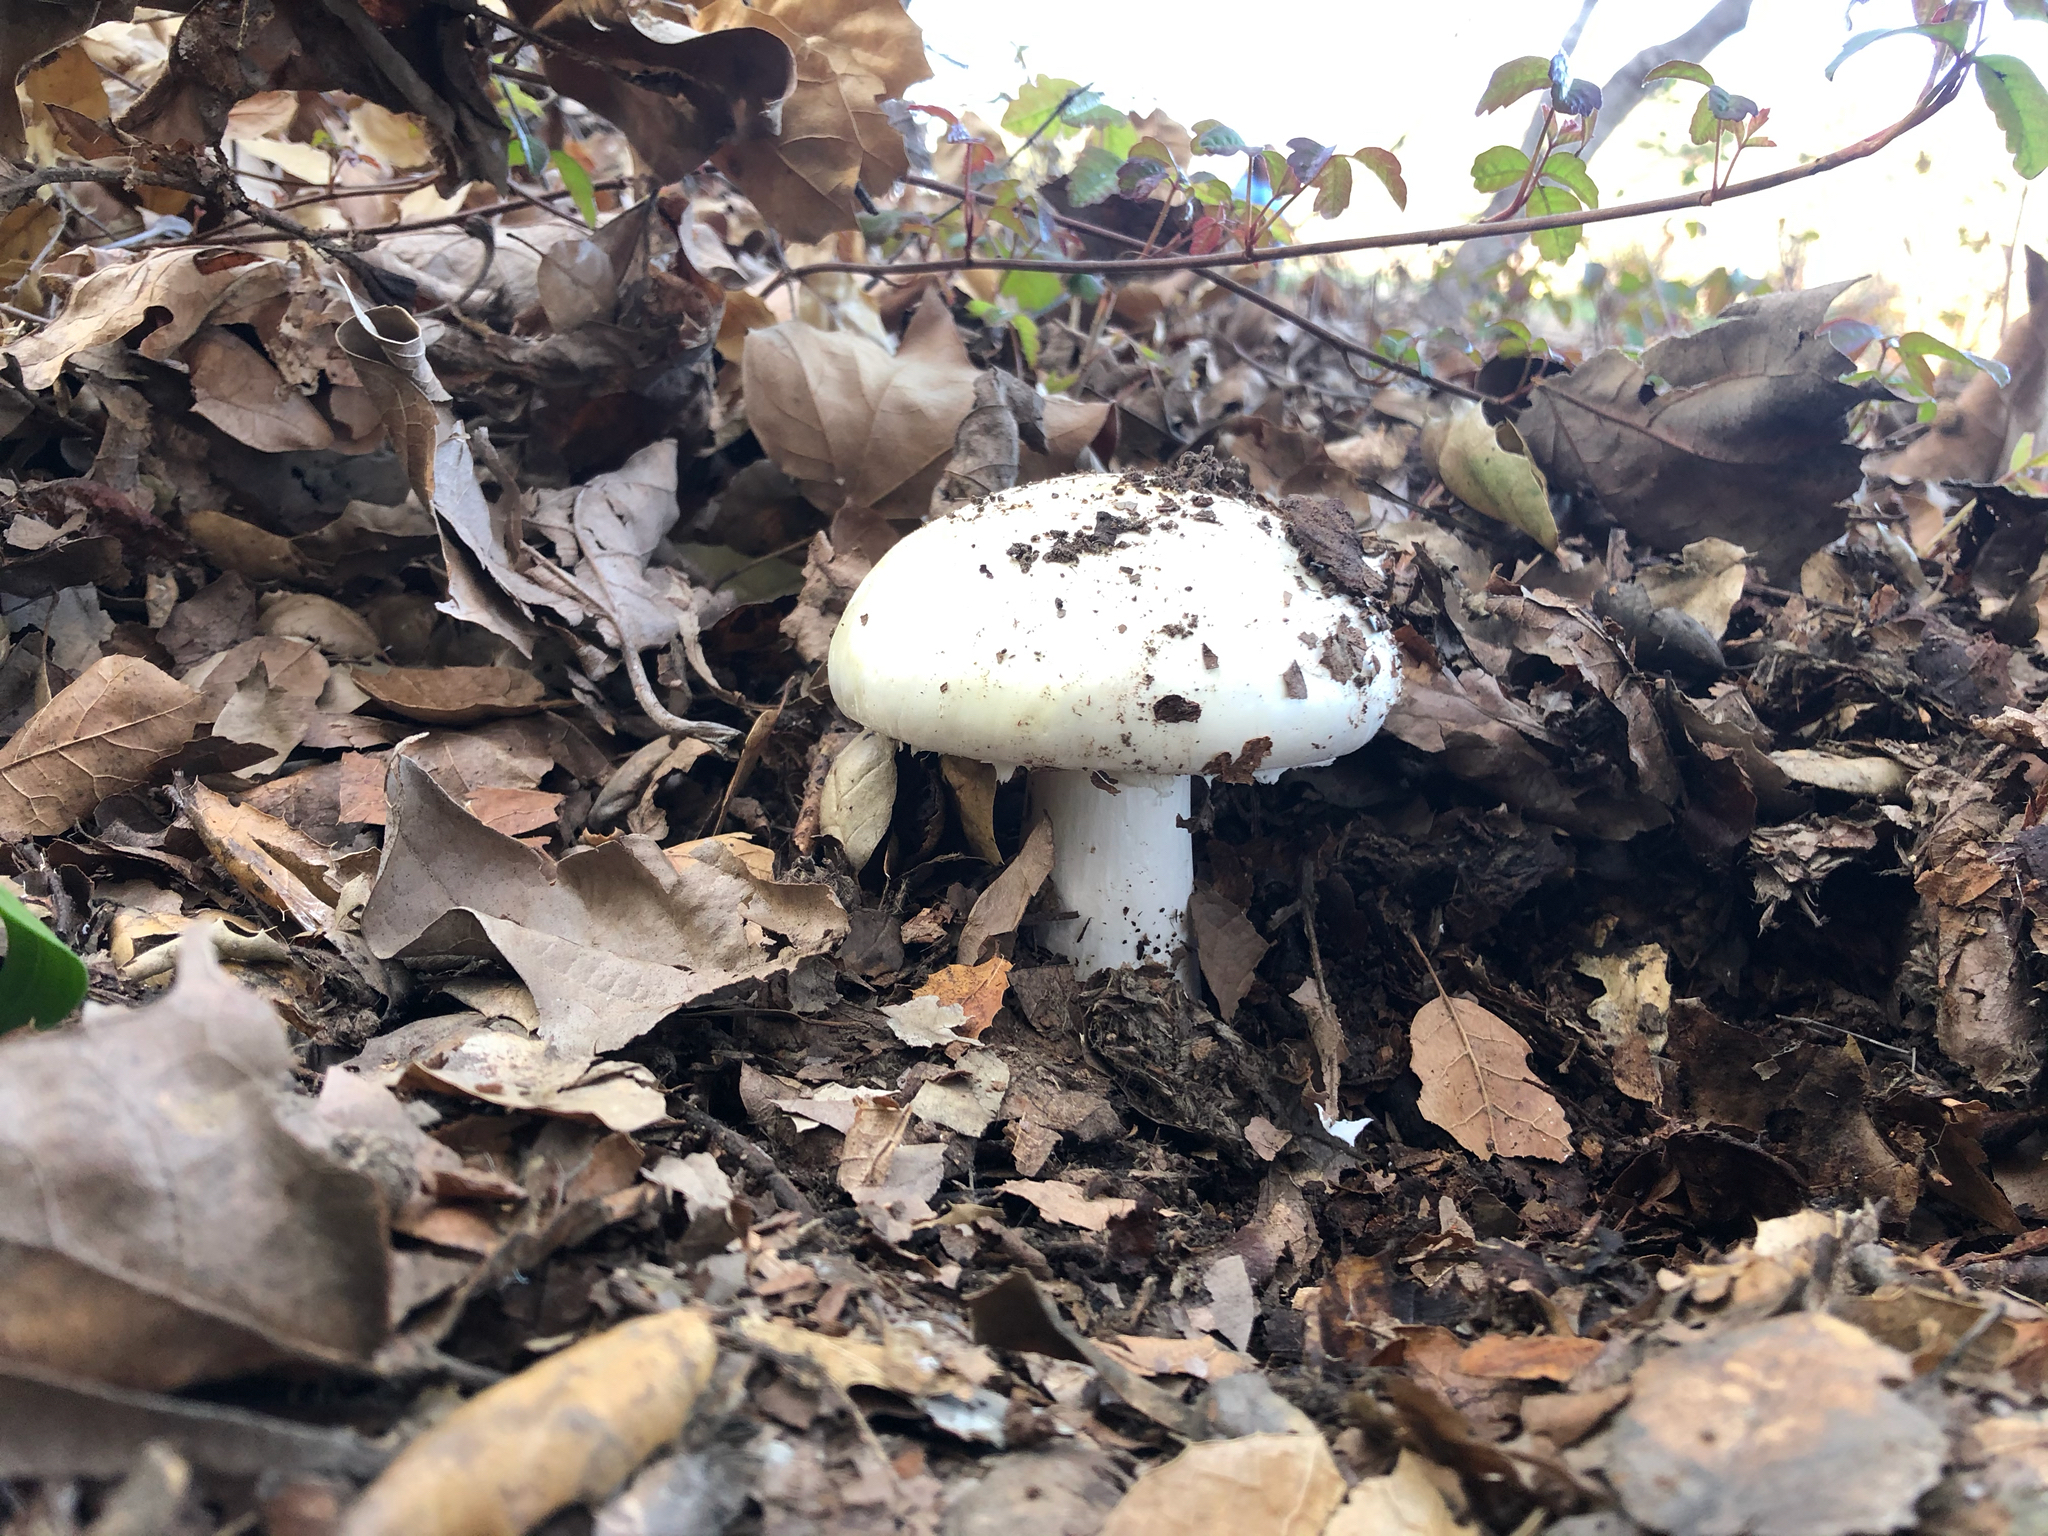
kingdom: Fungi
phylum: Basidiomycota
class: Agaricomycetes
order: Agaricales
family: Amanitaceae
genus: Amanita
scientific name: Amanita ocreata
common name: Western destroying angel
